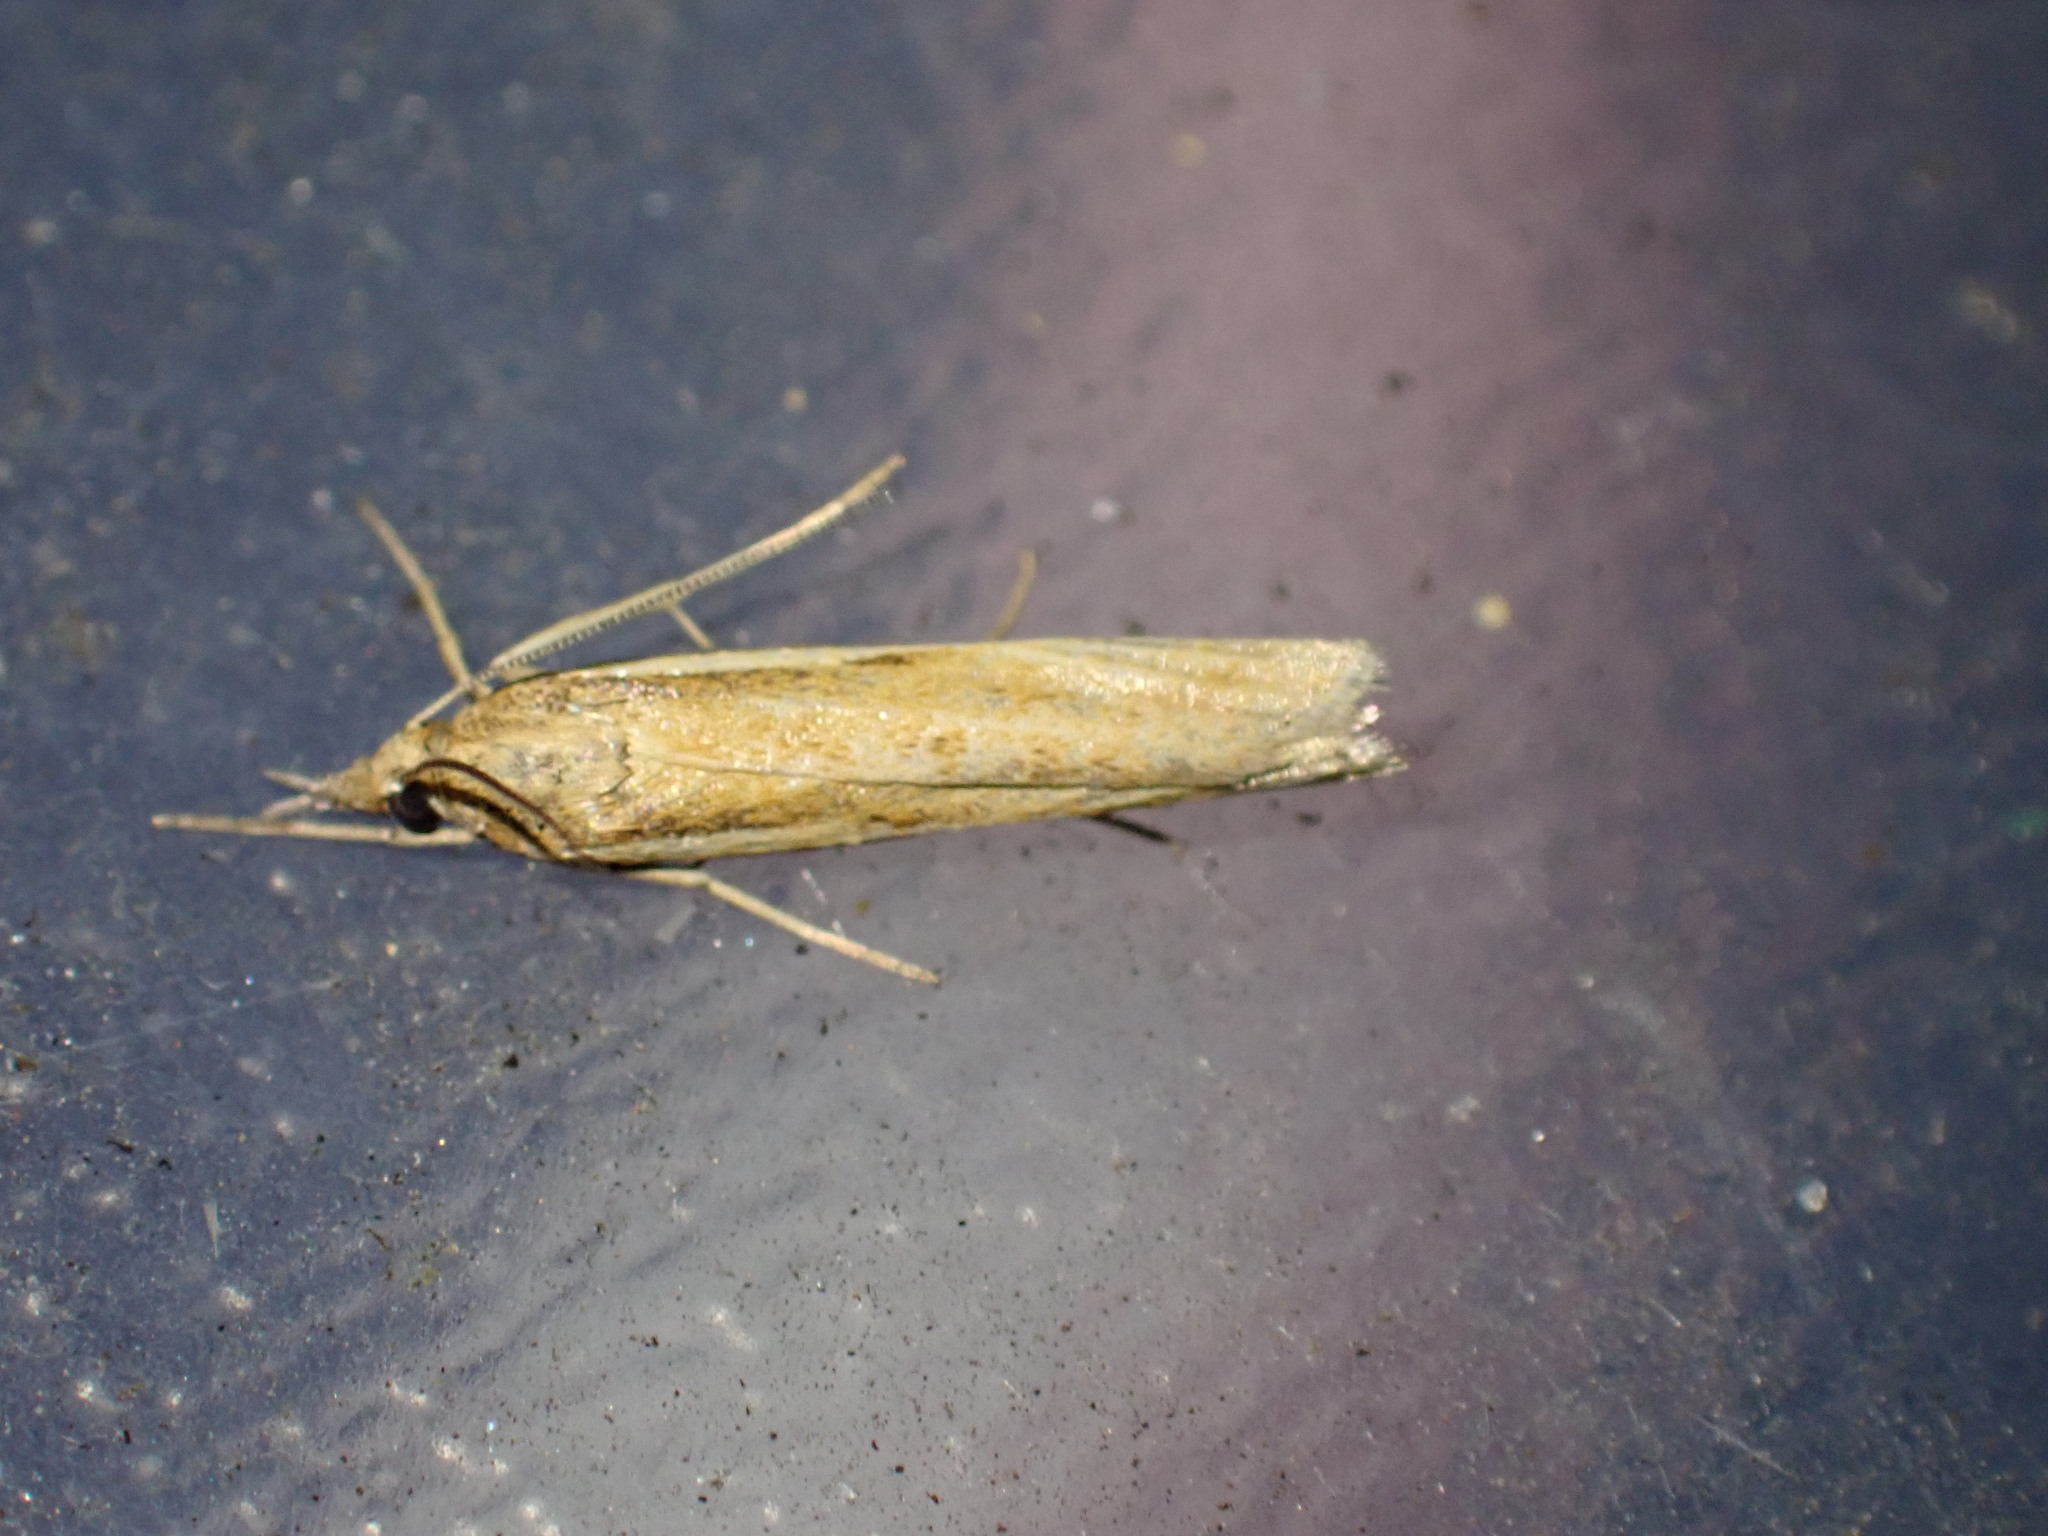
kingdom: Animalia
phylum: Arthropoda
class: Insecta
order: Lepidoptera
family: Crambidae
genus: Agriphila
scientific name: Agriphila tristellus
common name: Common grass-veneer
